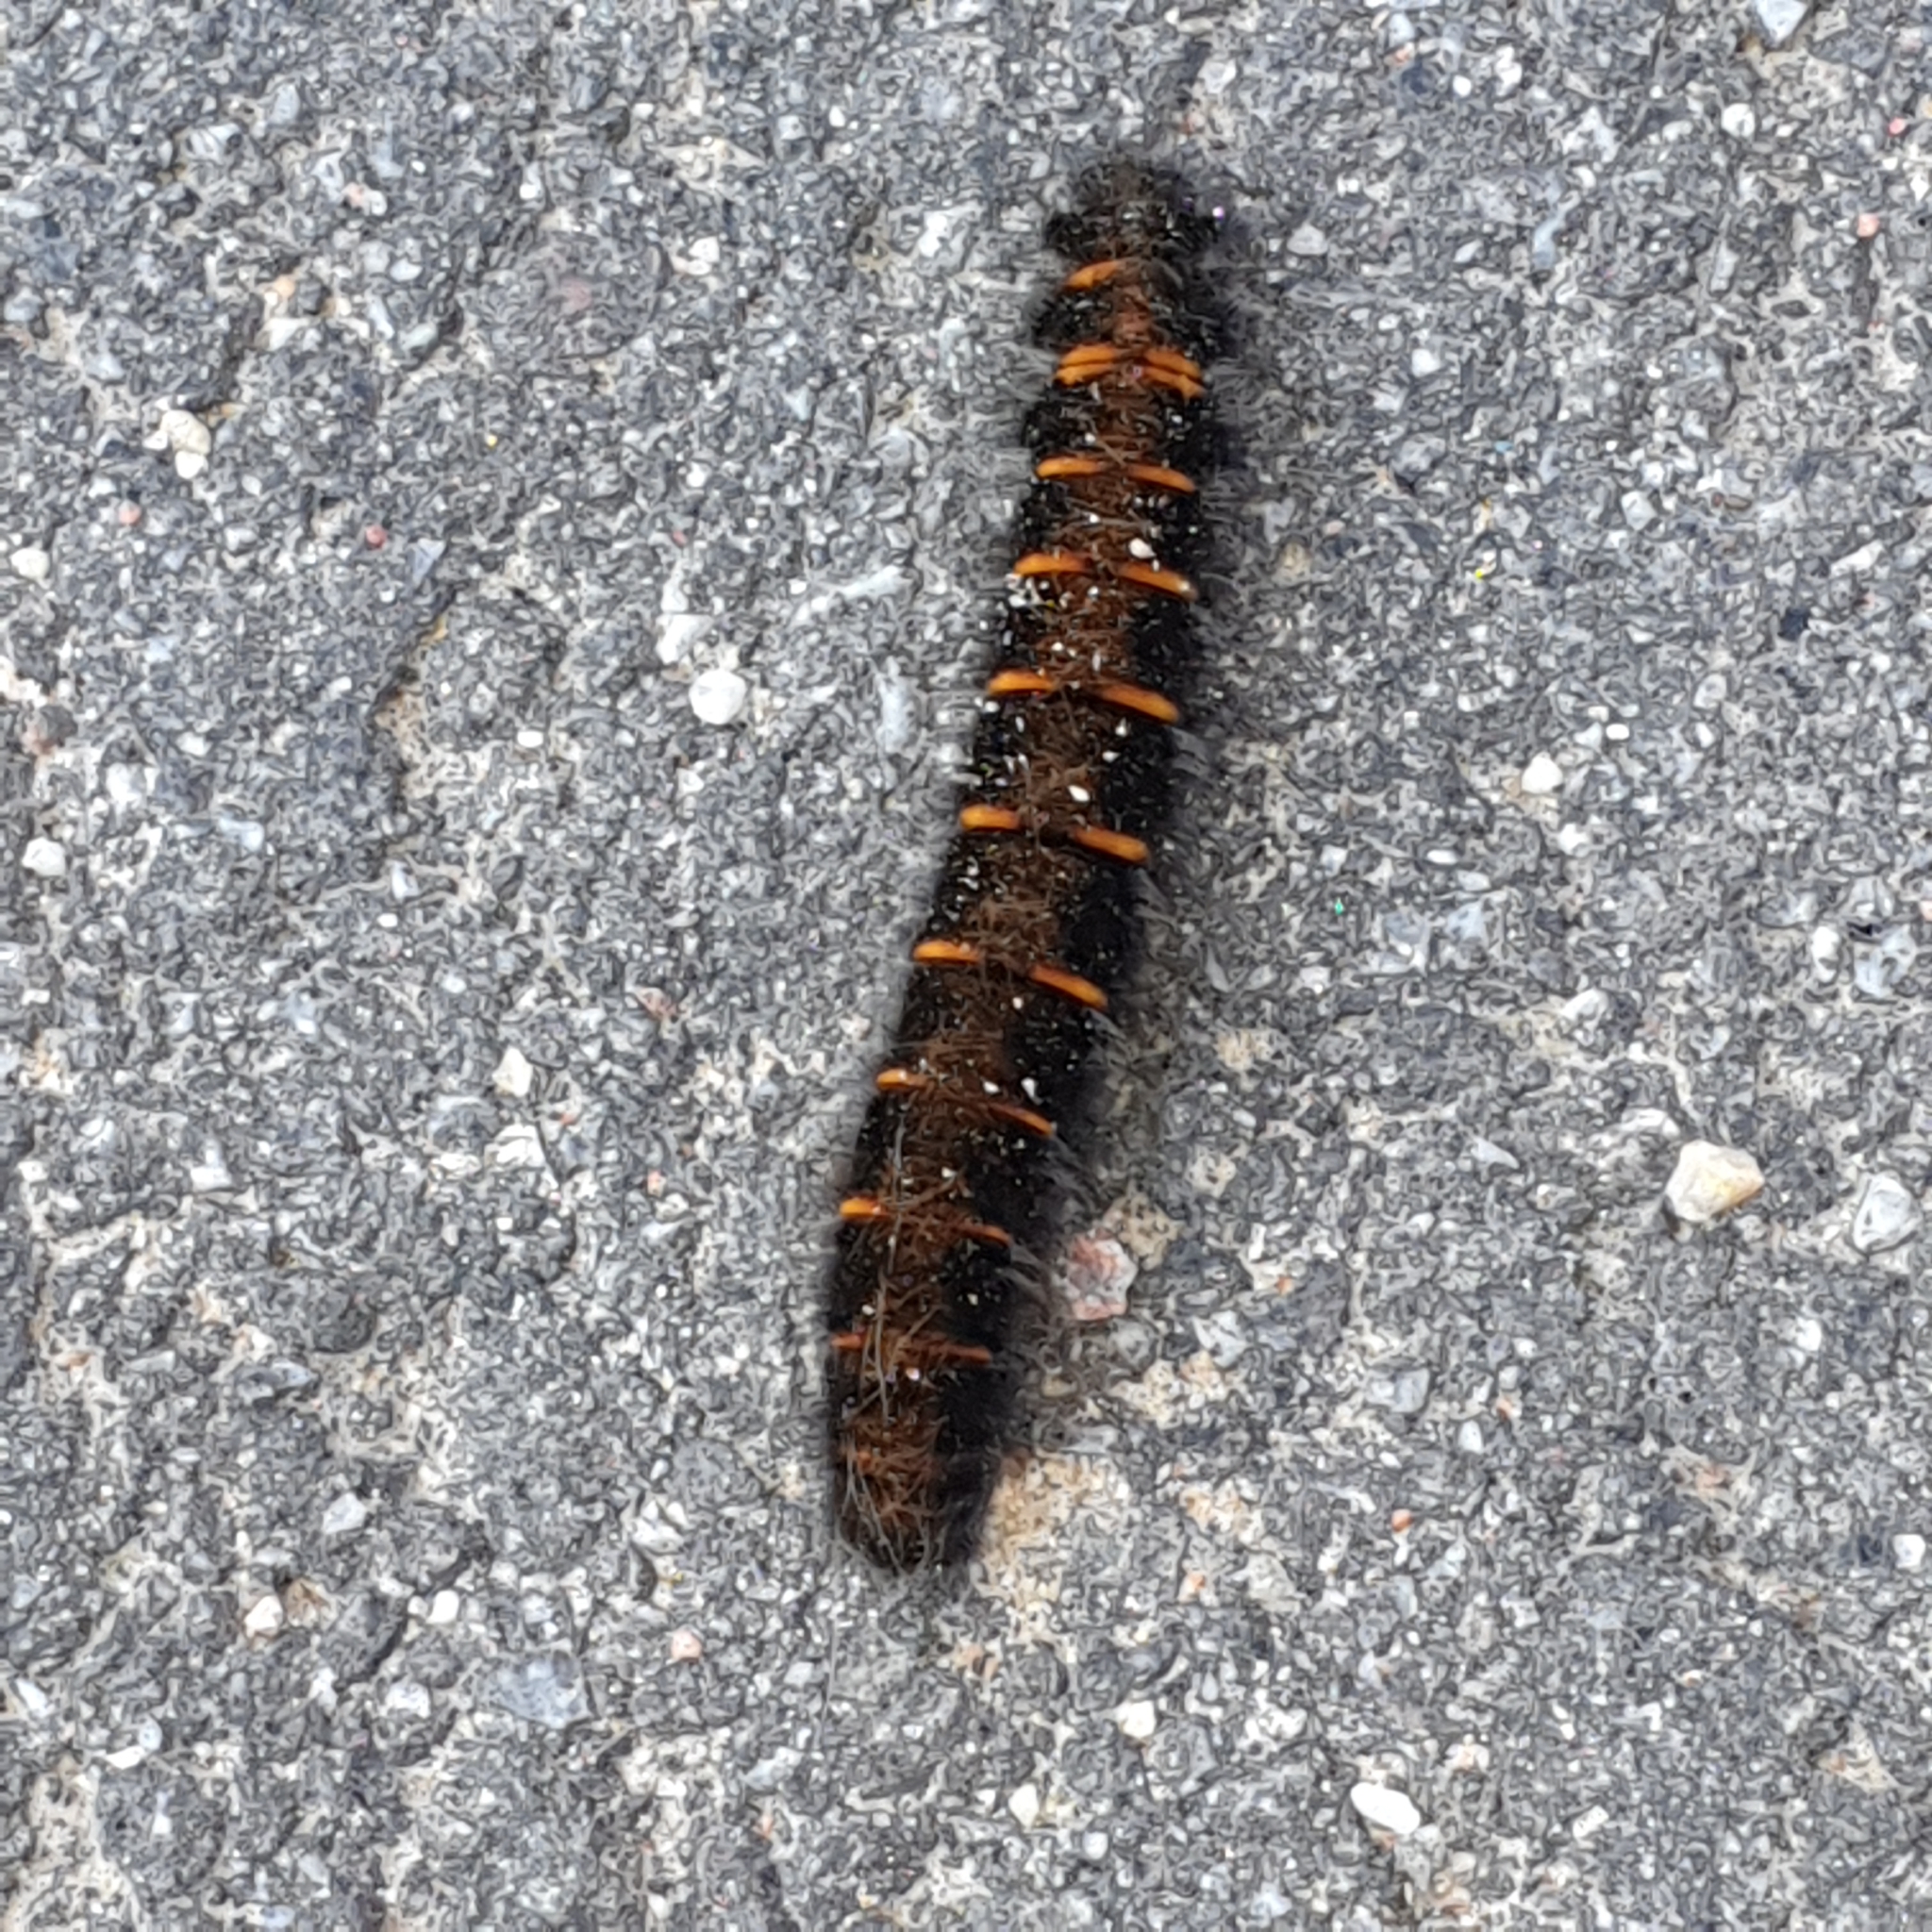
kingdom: Animalia
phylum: Arthropoda
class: Insecta
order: Lepidoptera
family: Lasiocampidae
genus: Macrothylacia
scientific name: Macrothylacia rubi
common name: Fox moth
